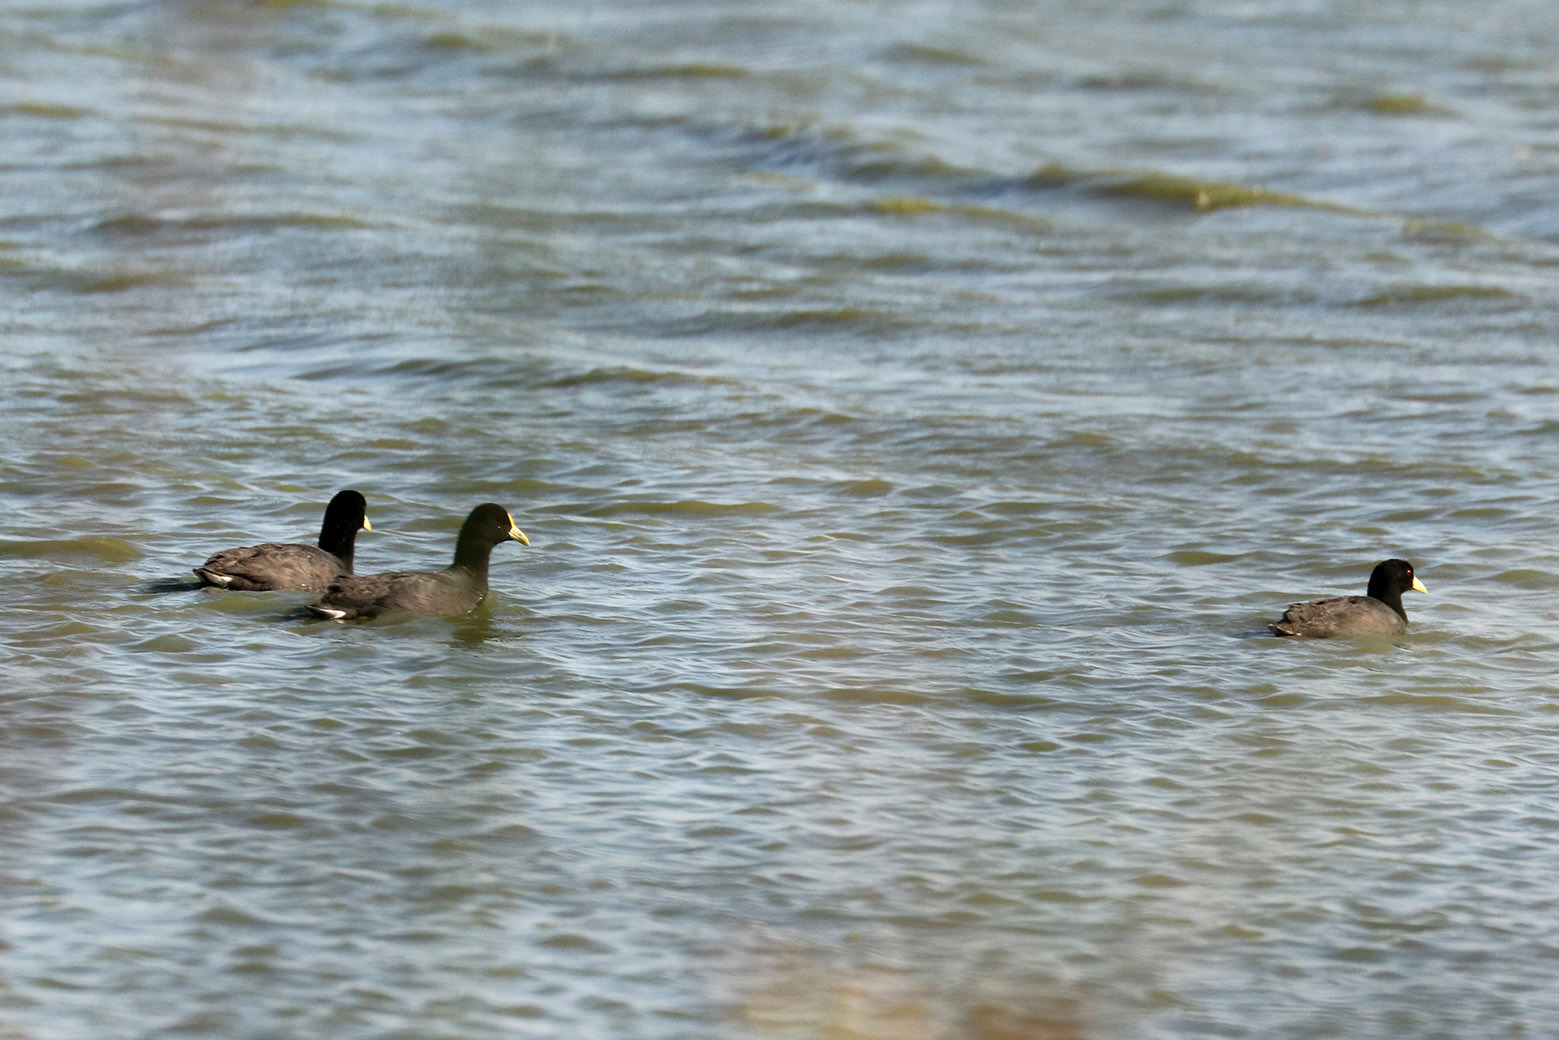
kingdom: Animalia
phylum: Chordata
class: Aves
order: Gruiformes
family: Rallidae
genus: Fulica
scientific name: Fulica leucoptera
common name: White-winged coot
